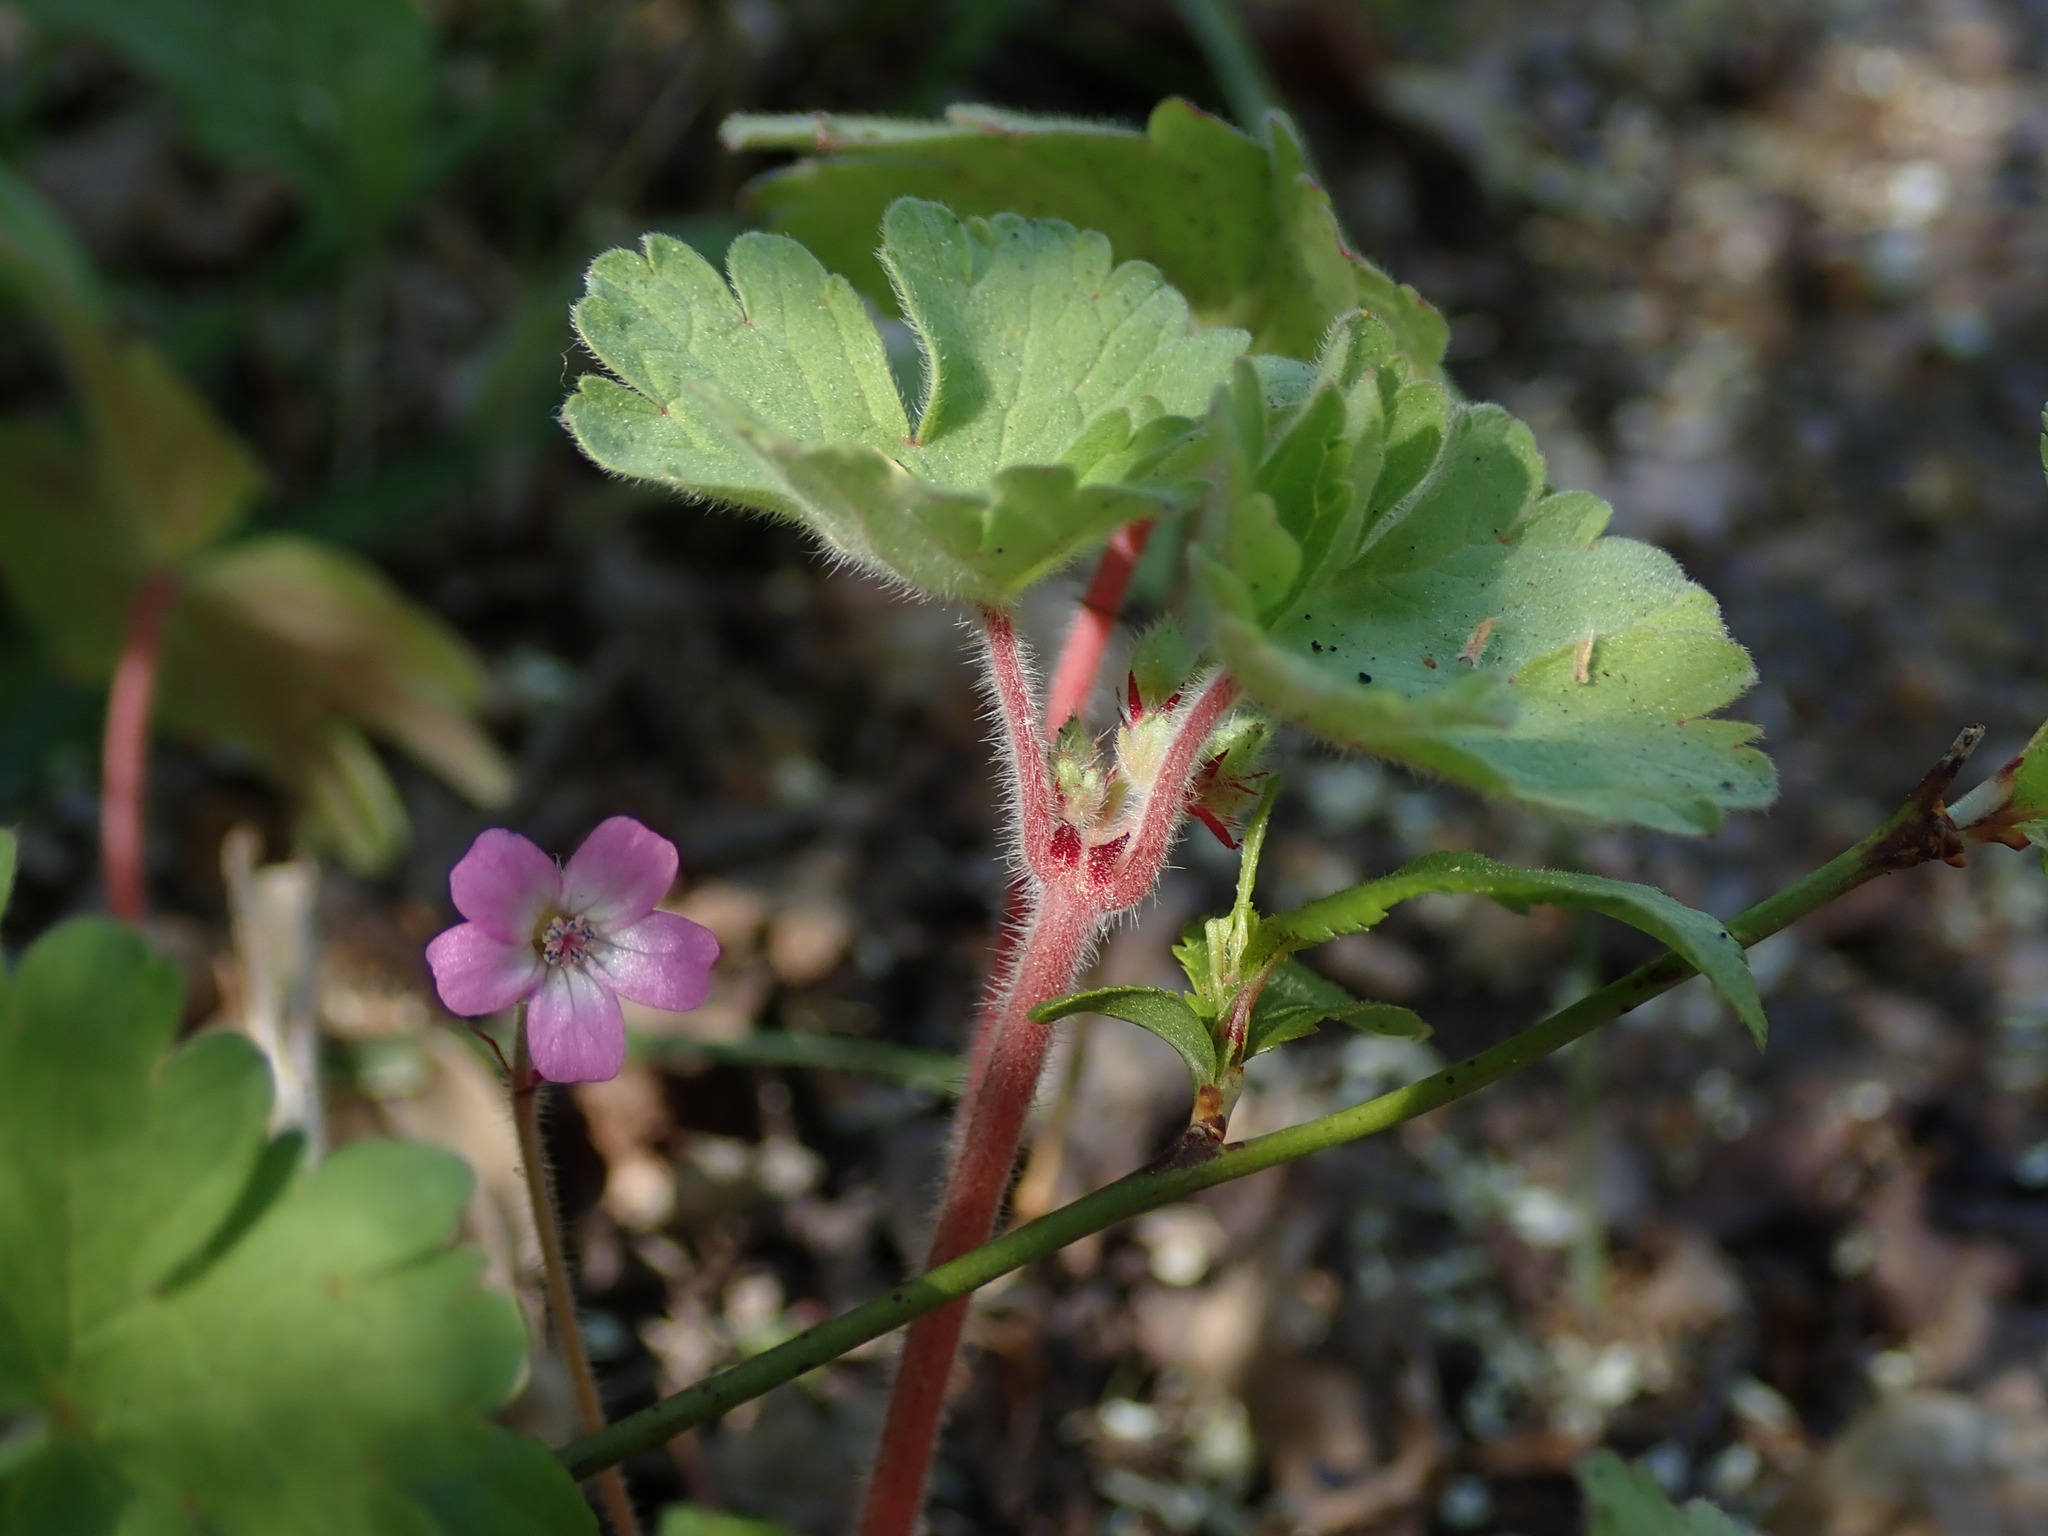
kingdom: Plantae
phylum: Tracheophyta
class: Magnoliopsida
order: Geraniales
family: Geraniaceae
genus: Geranium
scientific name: Geranium rotundifolium
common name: Round-leaved crane's-bill
